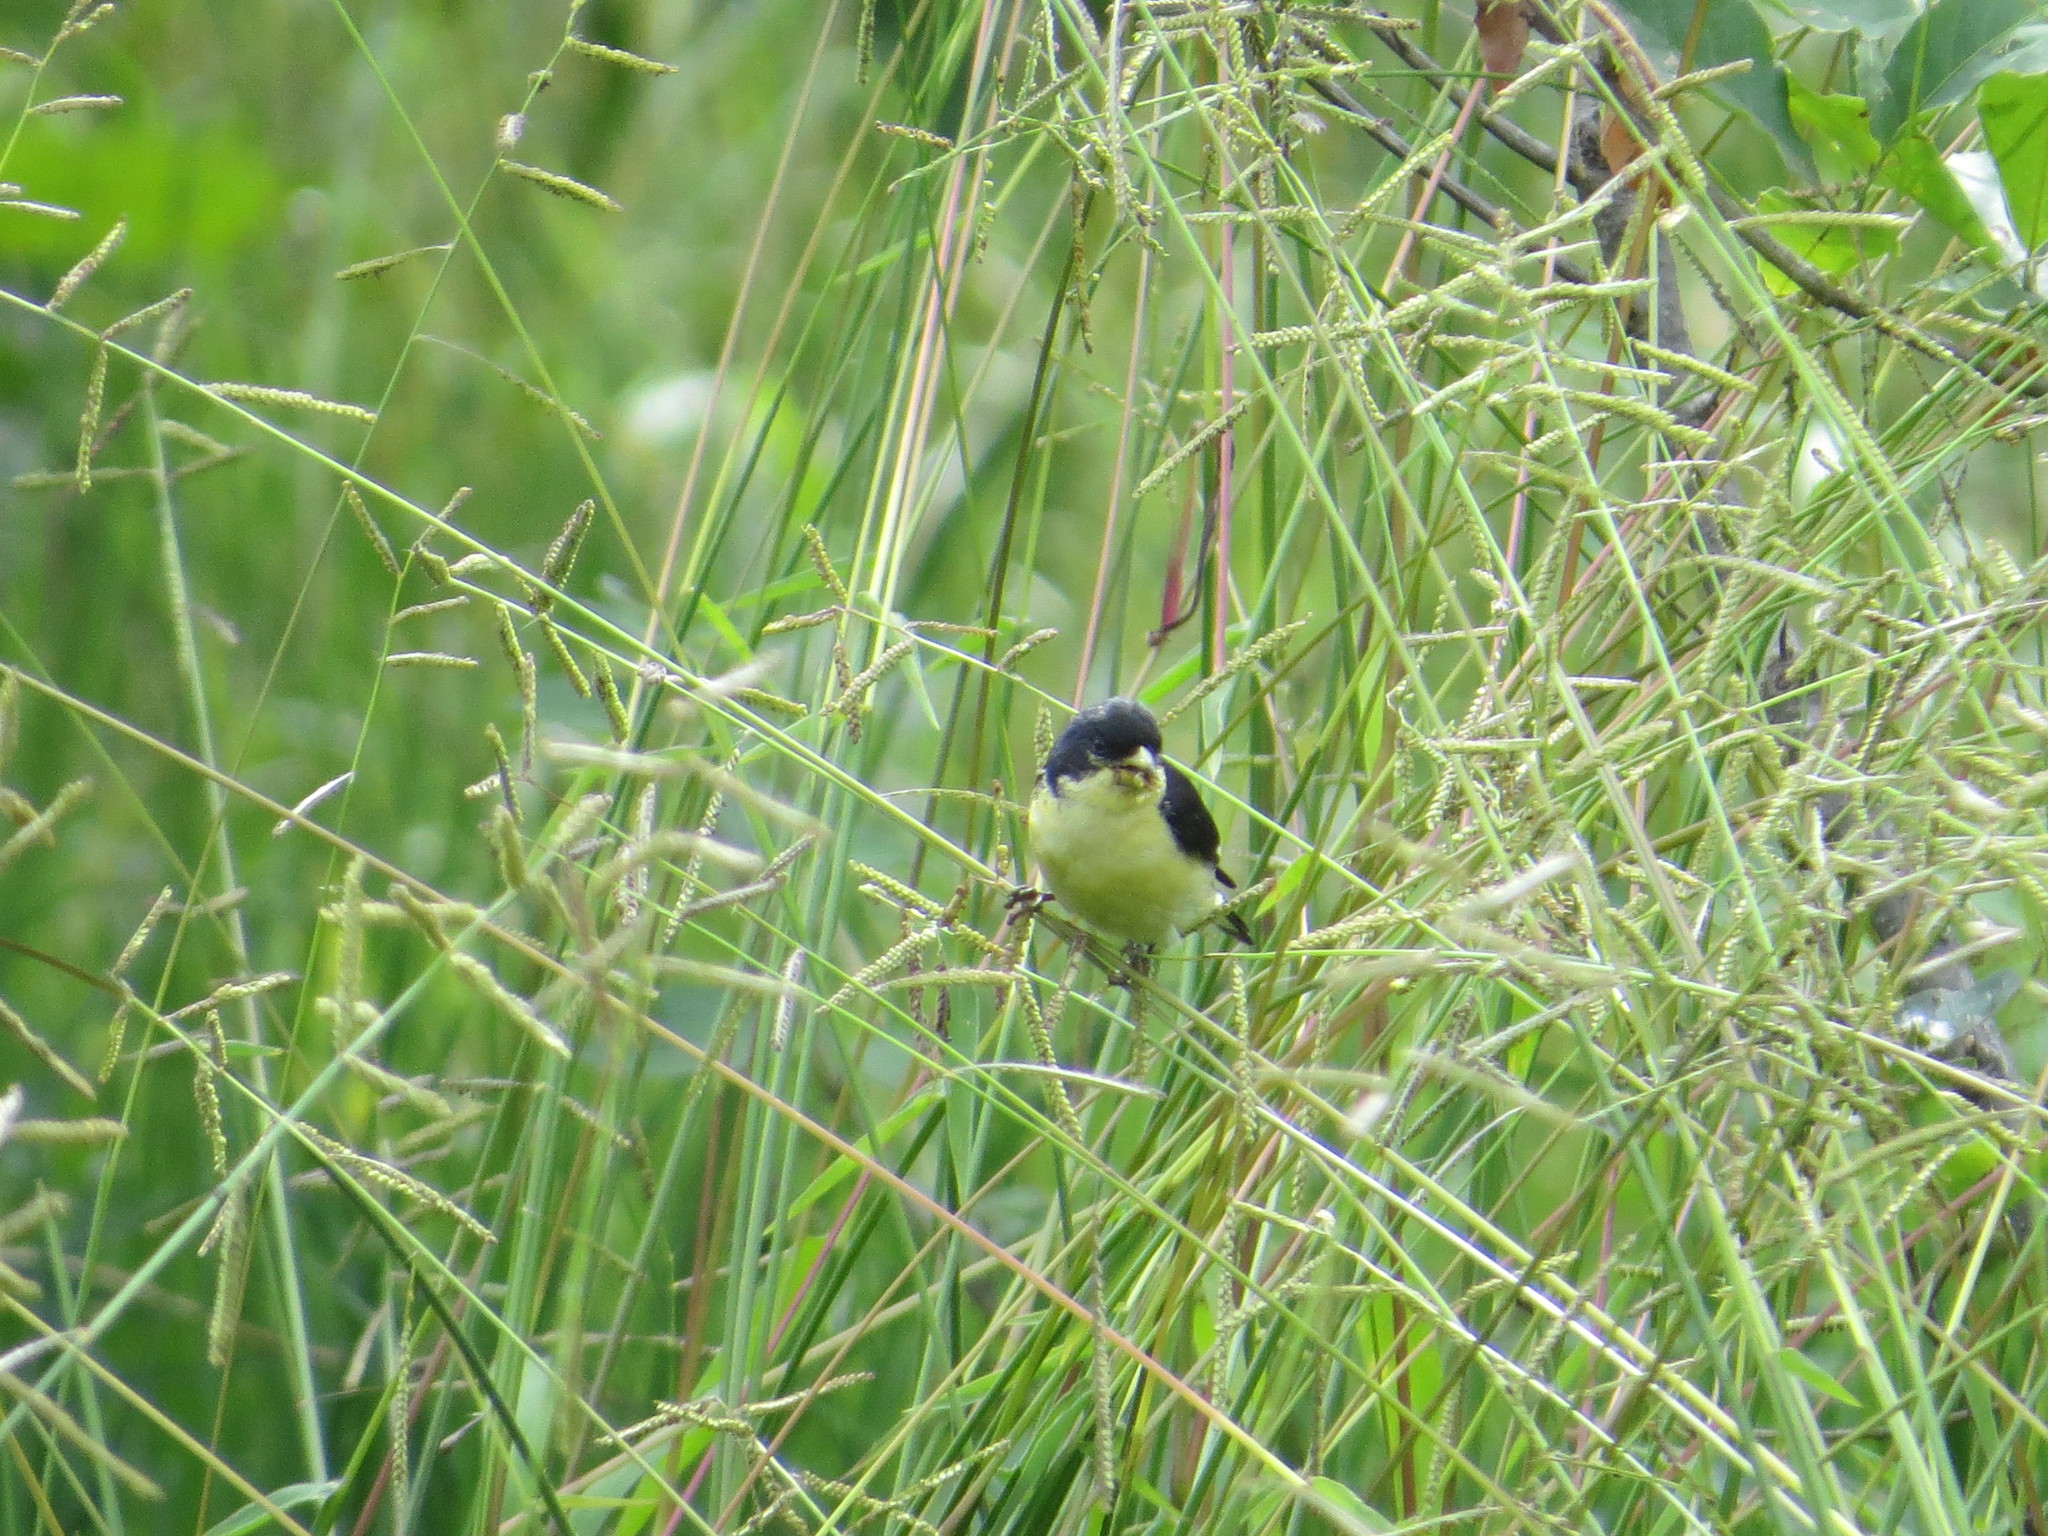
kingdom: Animalia
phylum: Chordata
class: Aves
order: Passeriformes
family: Fringillidae
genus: Spinus
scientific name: Spinus psaltria
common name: Lesser goldfinch
